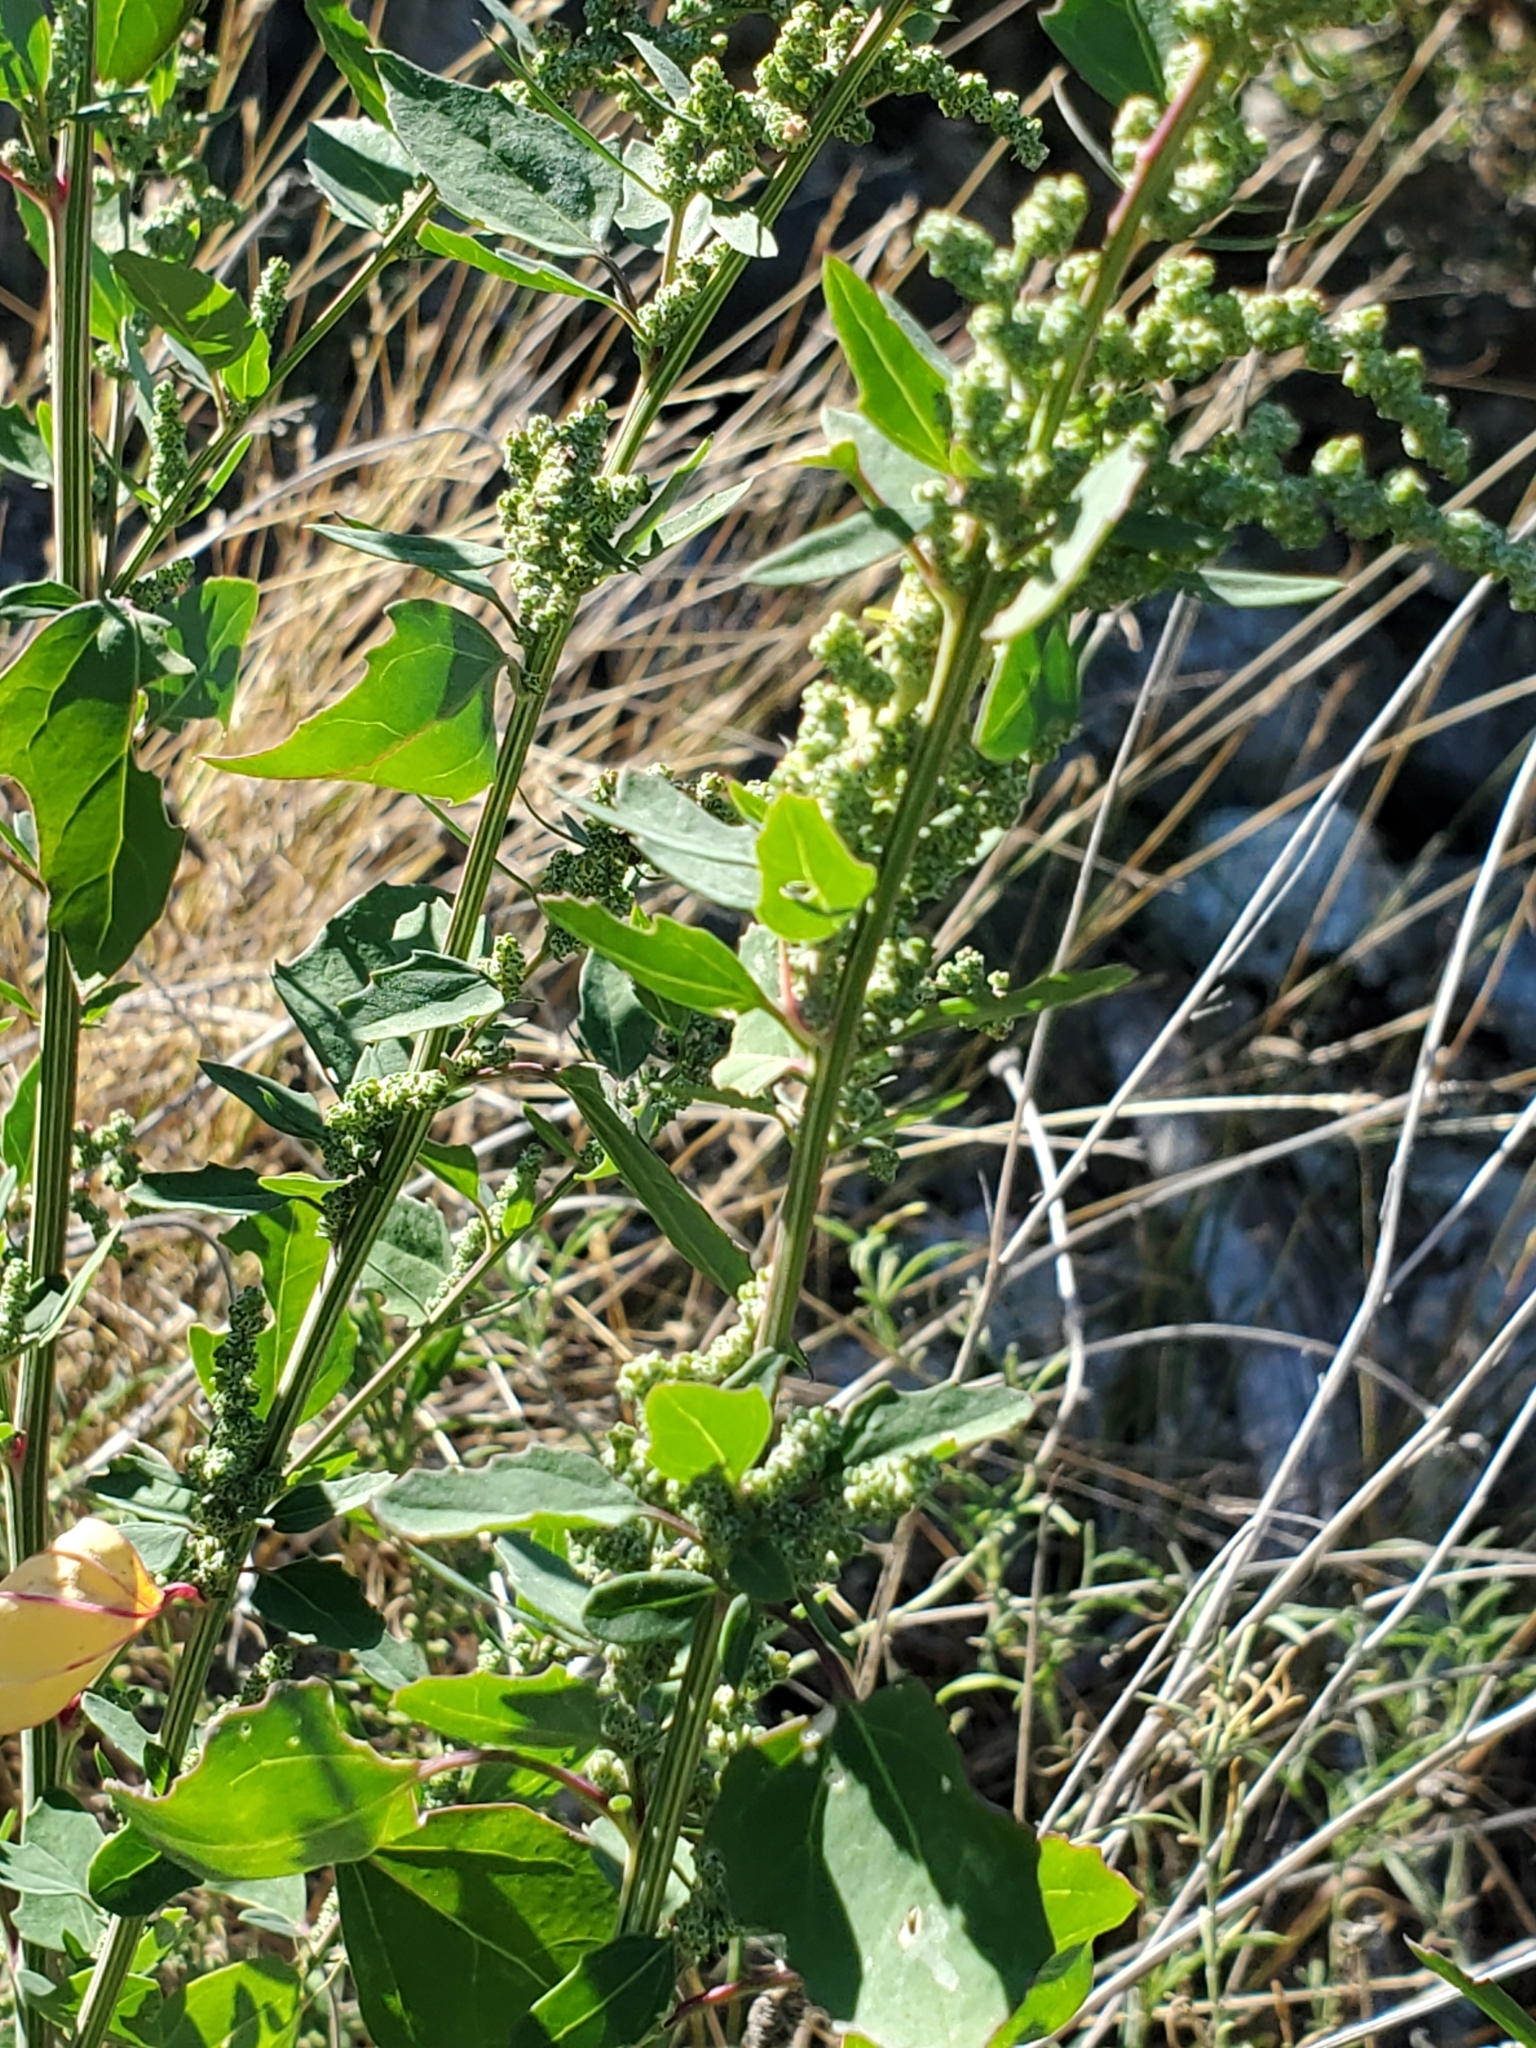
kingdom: Plantae
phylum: Tracheophyta
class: Magnoliopsida
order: Caryophyllales
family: Amaranthaceae
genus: Chenopodium
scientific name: Chenopodium album
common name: Fat-hen
